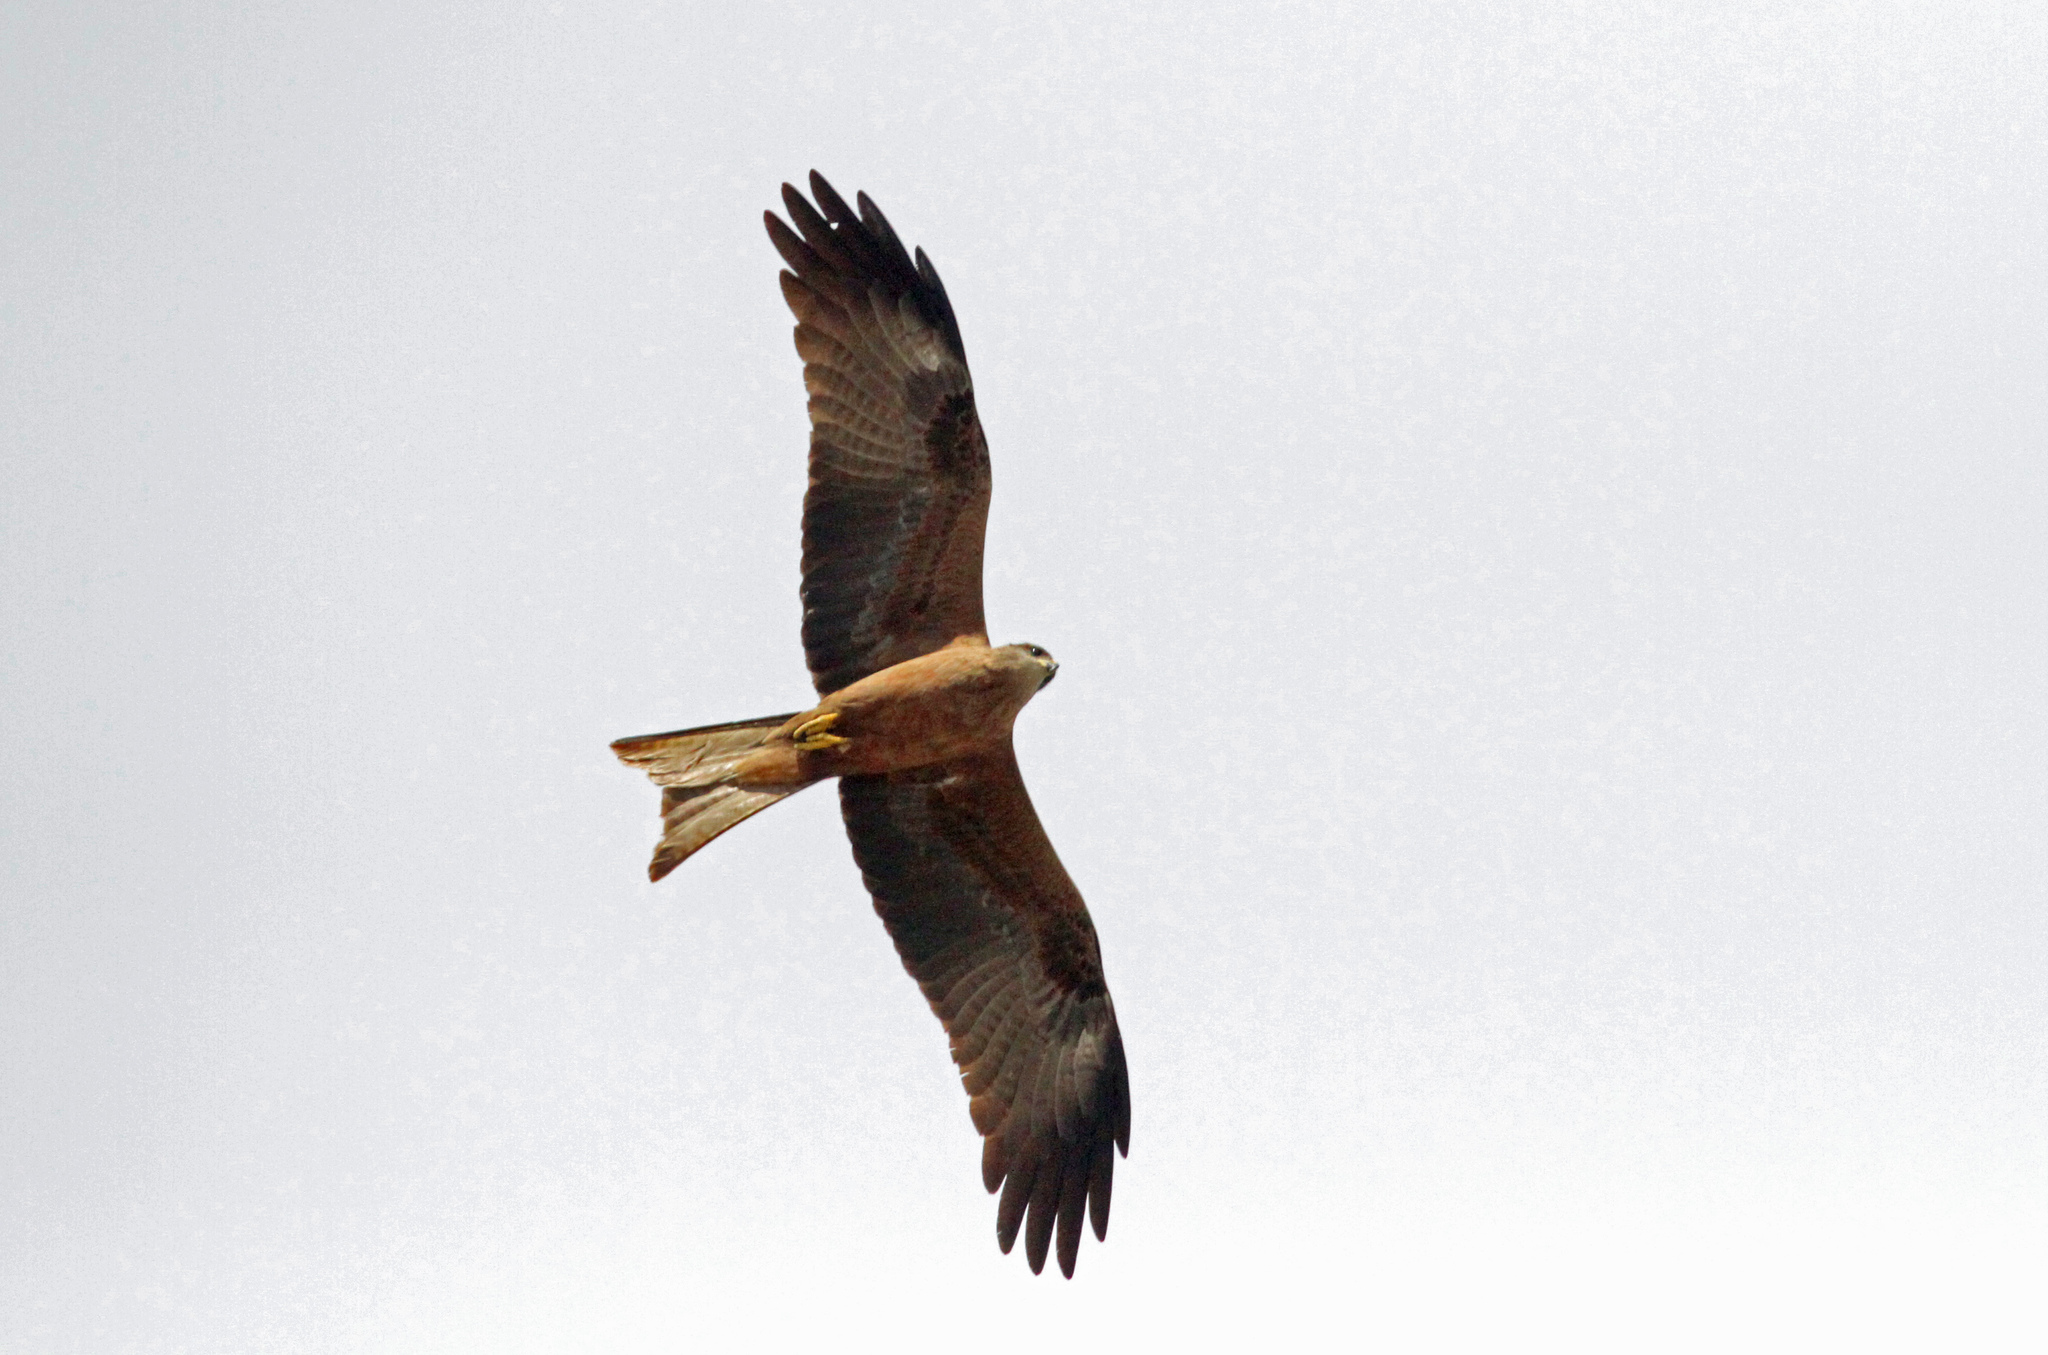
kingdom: Animalia
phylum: Chordata
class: Aves
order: Accipitriformes
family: Accipitridae
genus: Milvus
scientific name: Milvus migrans
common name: Black kite
